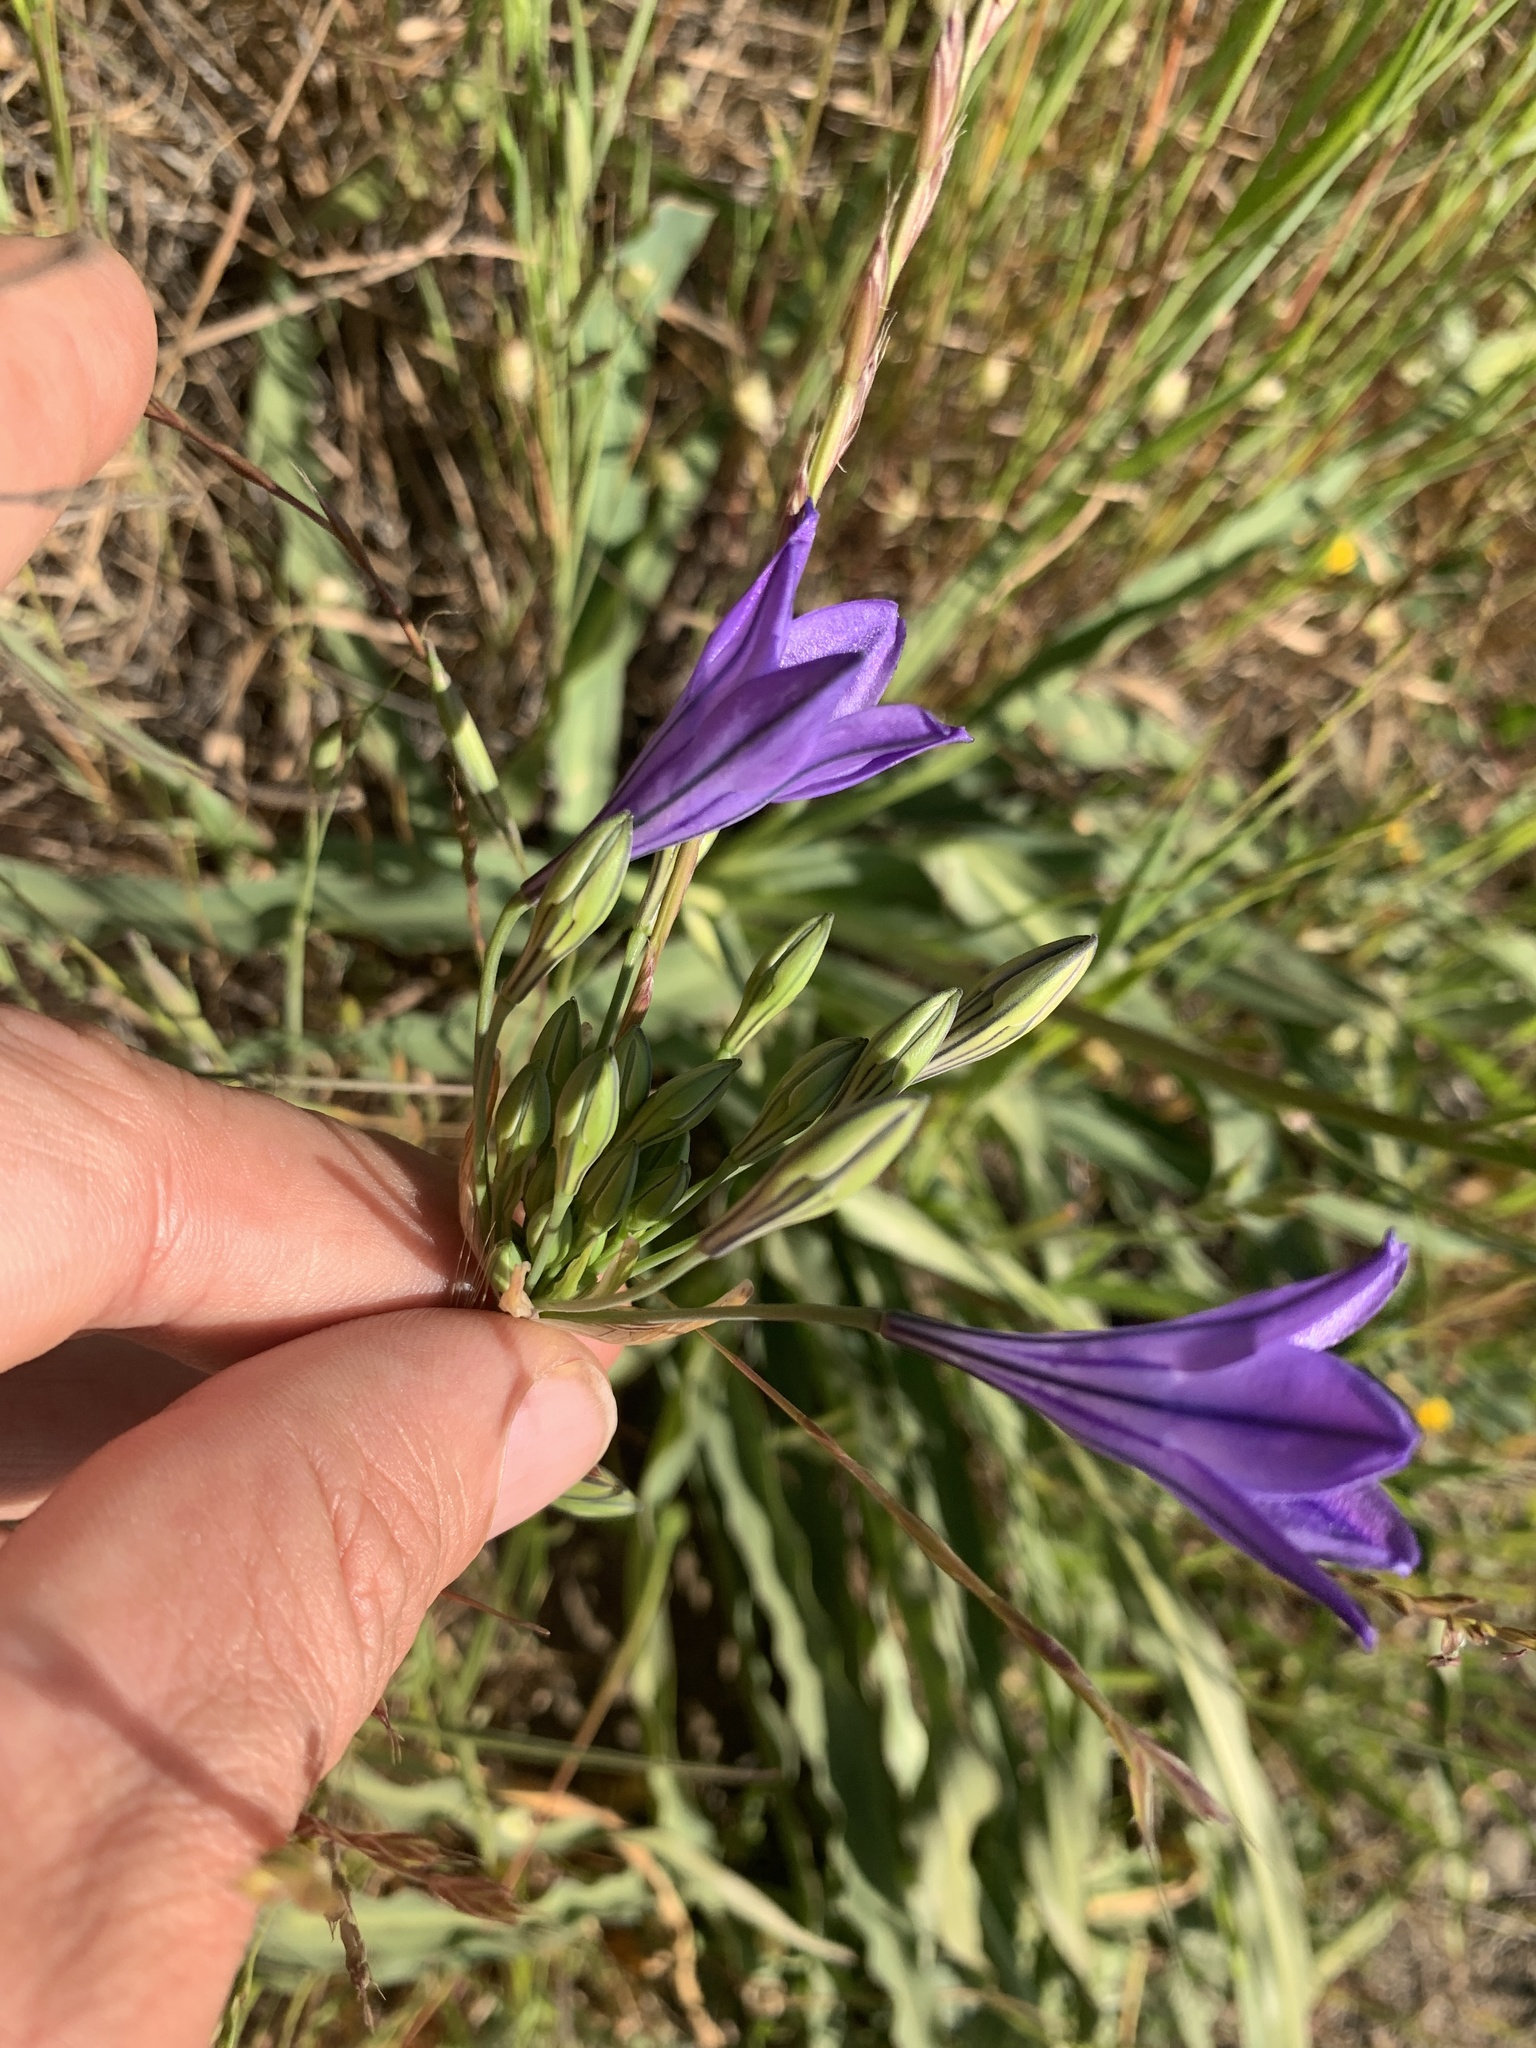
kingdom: Plantae
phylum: Tracheophyta
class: Liliopsida
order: Asparagales
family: Asparagaceae
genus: Triteleia
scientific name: Triteleia laxa
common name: Triplet-lily
